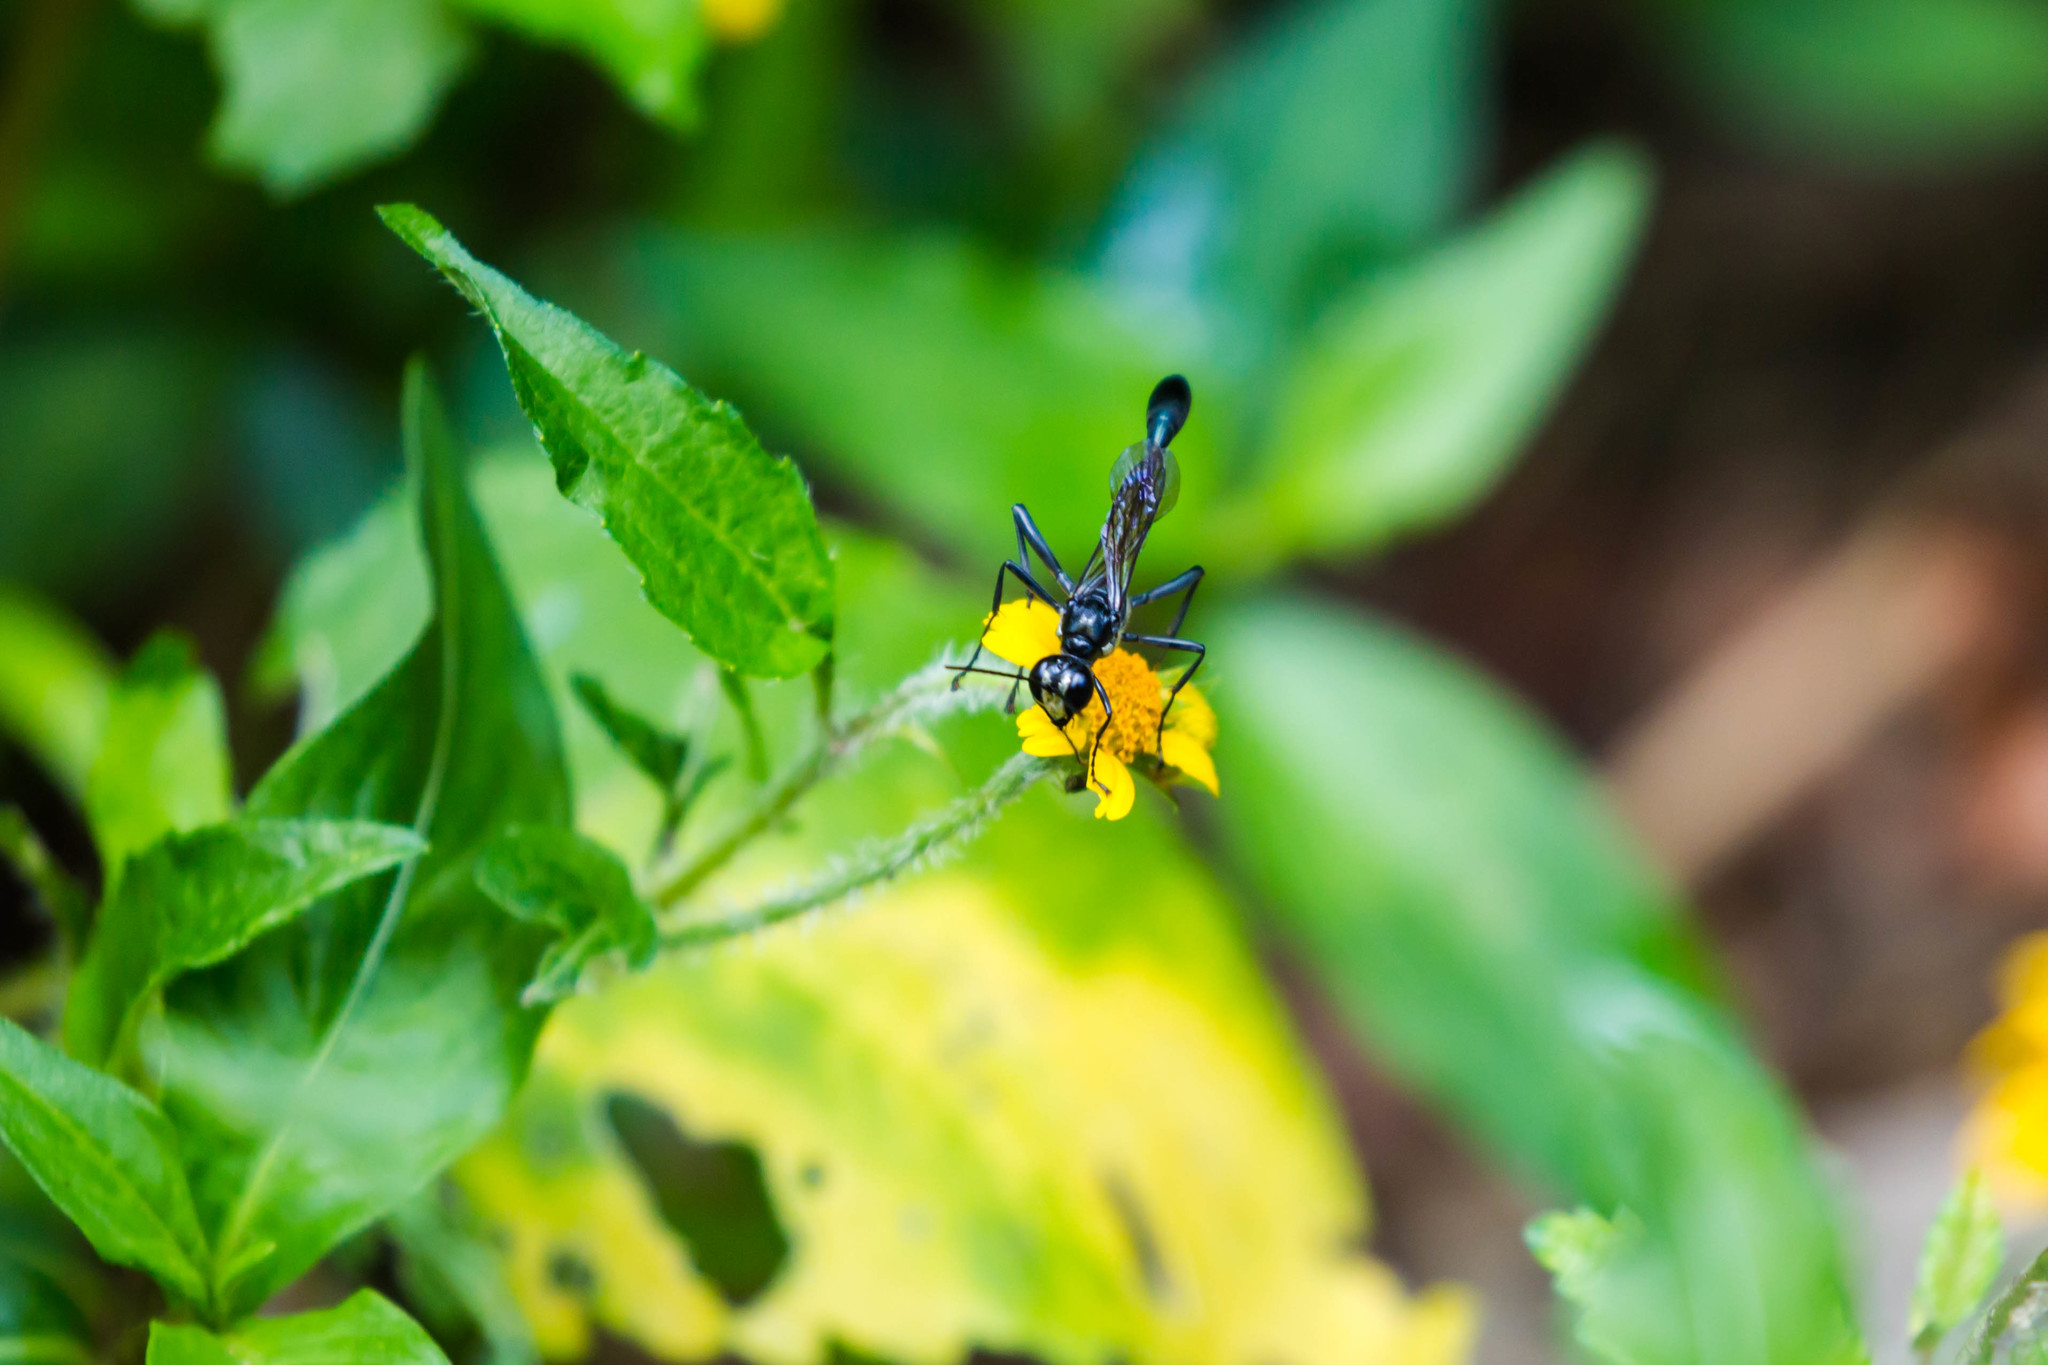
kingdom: Animalia
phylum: Arthropoda
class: Insecta
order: Hymenoptera
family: Sphecidae
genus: Eremnophila
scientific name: Eremnophila aureonotata
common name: Gold-marked thread-waisted wasp
